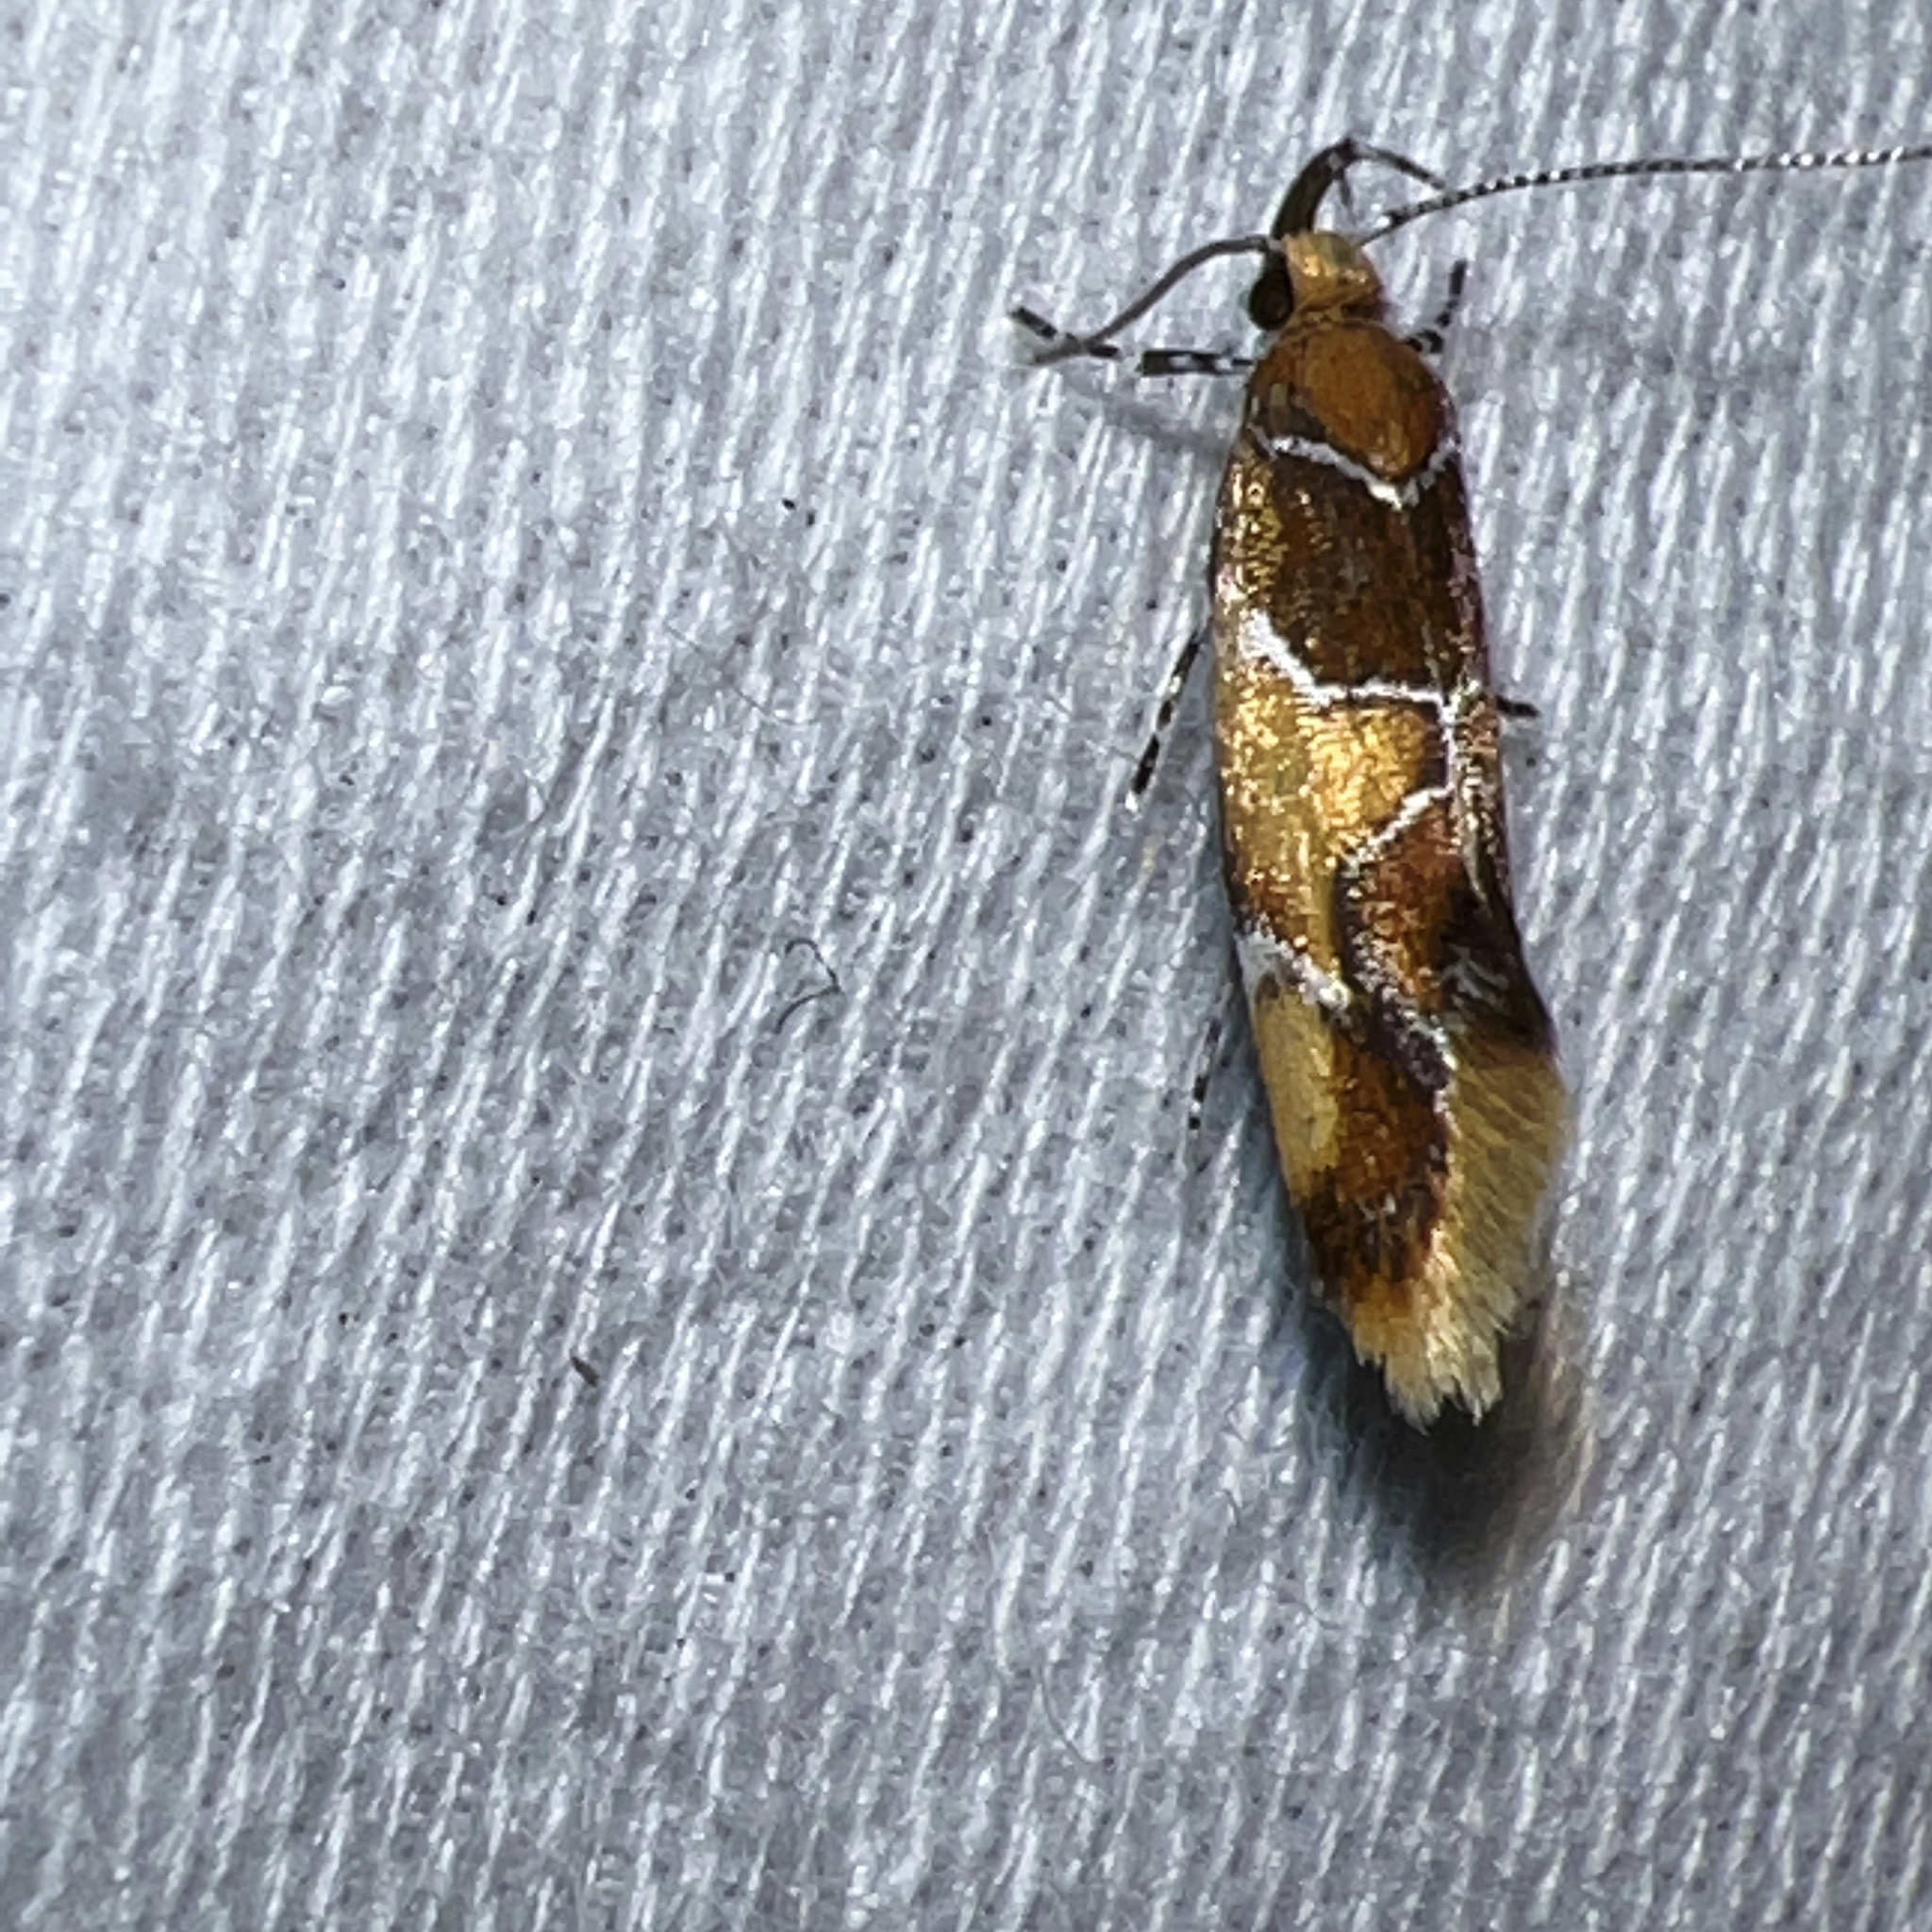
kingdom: Animalia
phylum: Arthropoda
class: Insecta
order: Lepidoptera
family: Oecophoridae
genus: Callima
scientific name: Callima argenticinctella
